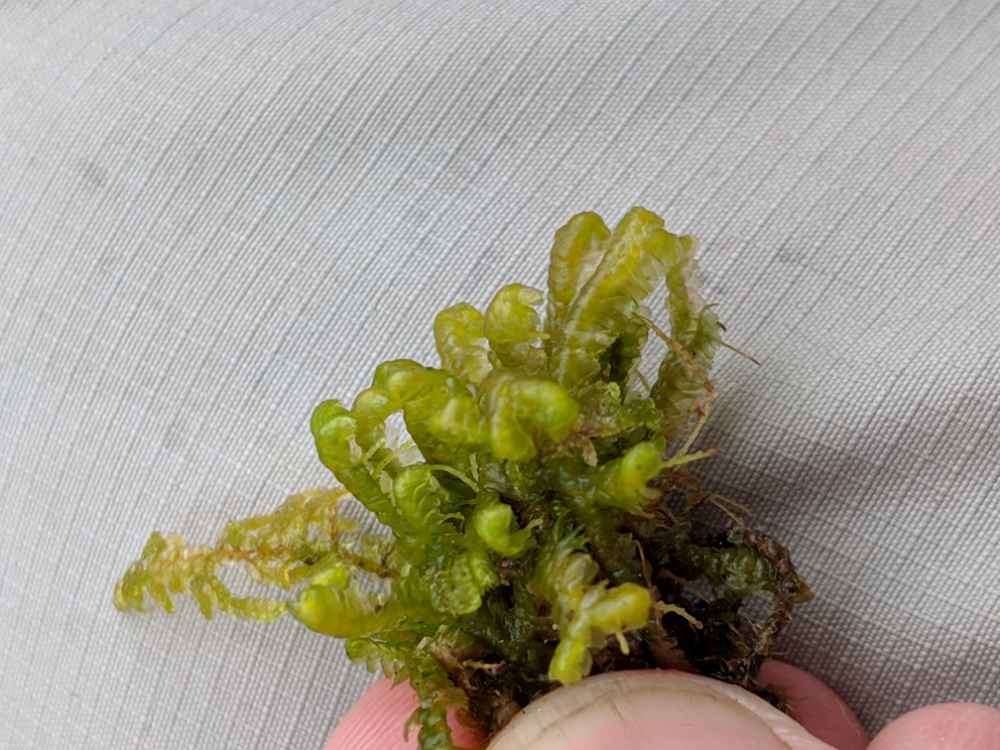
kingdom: Plantae
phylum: Marchantiophyta
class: Jungermanniopsida
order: Jungermanniales
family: Lepidoziaceae
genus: Bazzania
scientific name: Bazzania trilobata
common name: Three-lobed whipwort
